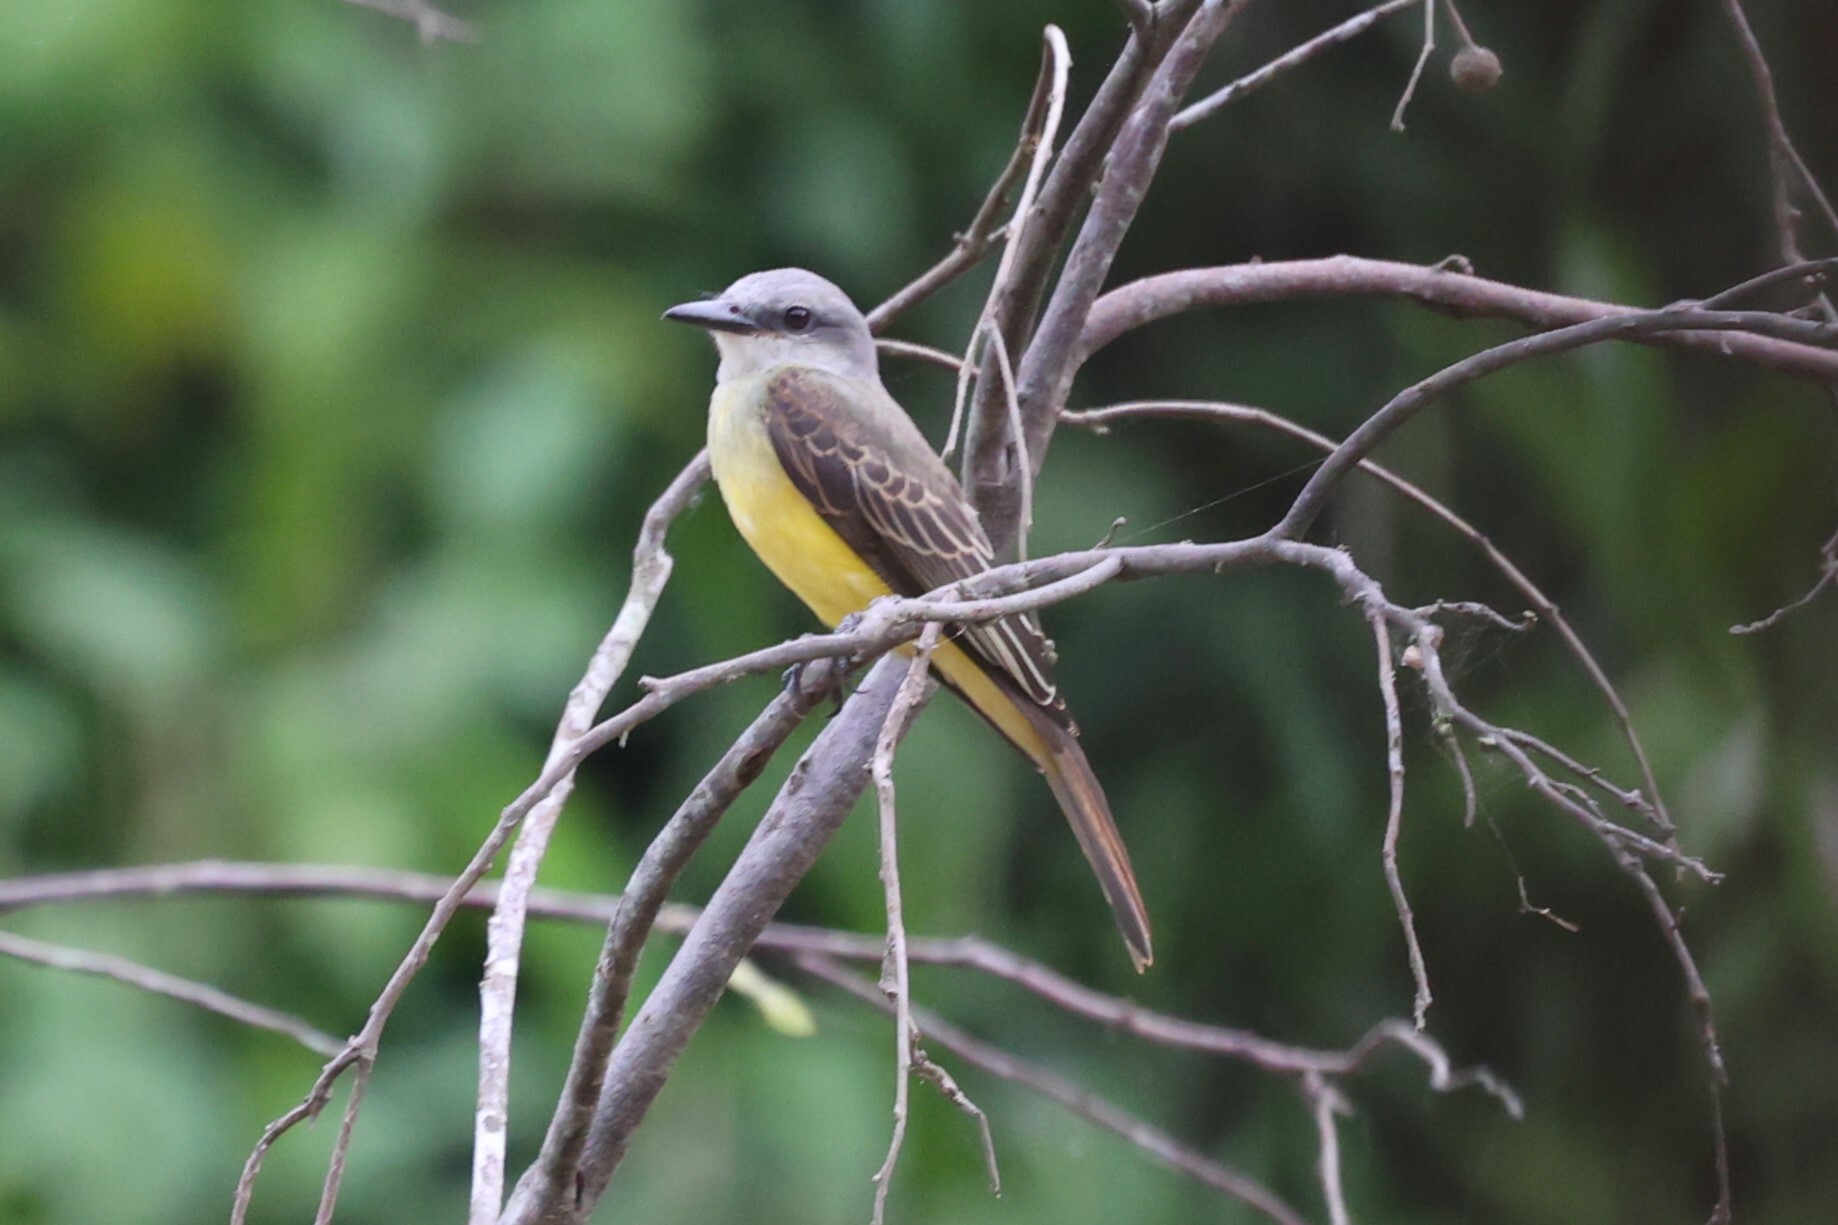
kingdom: Animalia
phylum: Chordata
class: Aves
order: Passeriformes
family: Tyrannidae
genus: Tyrannus
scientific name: Tyrannus melancholicus
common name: Tropical kingbird
